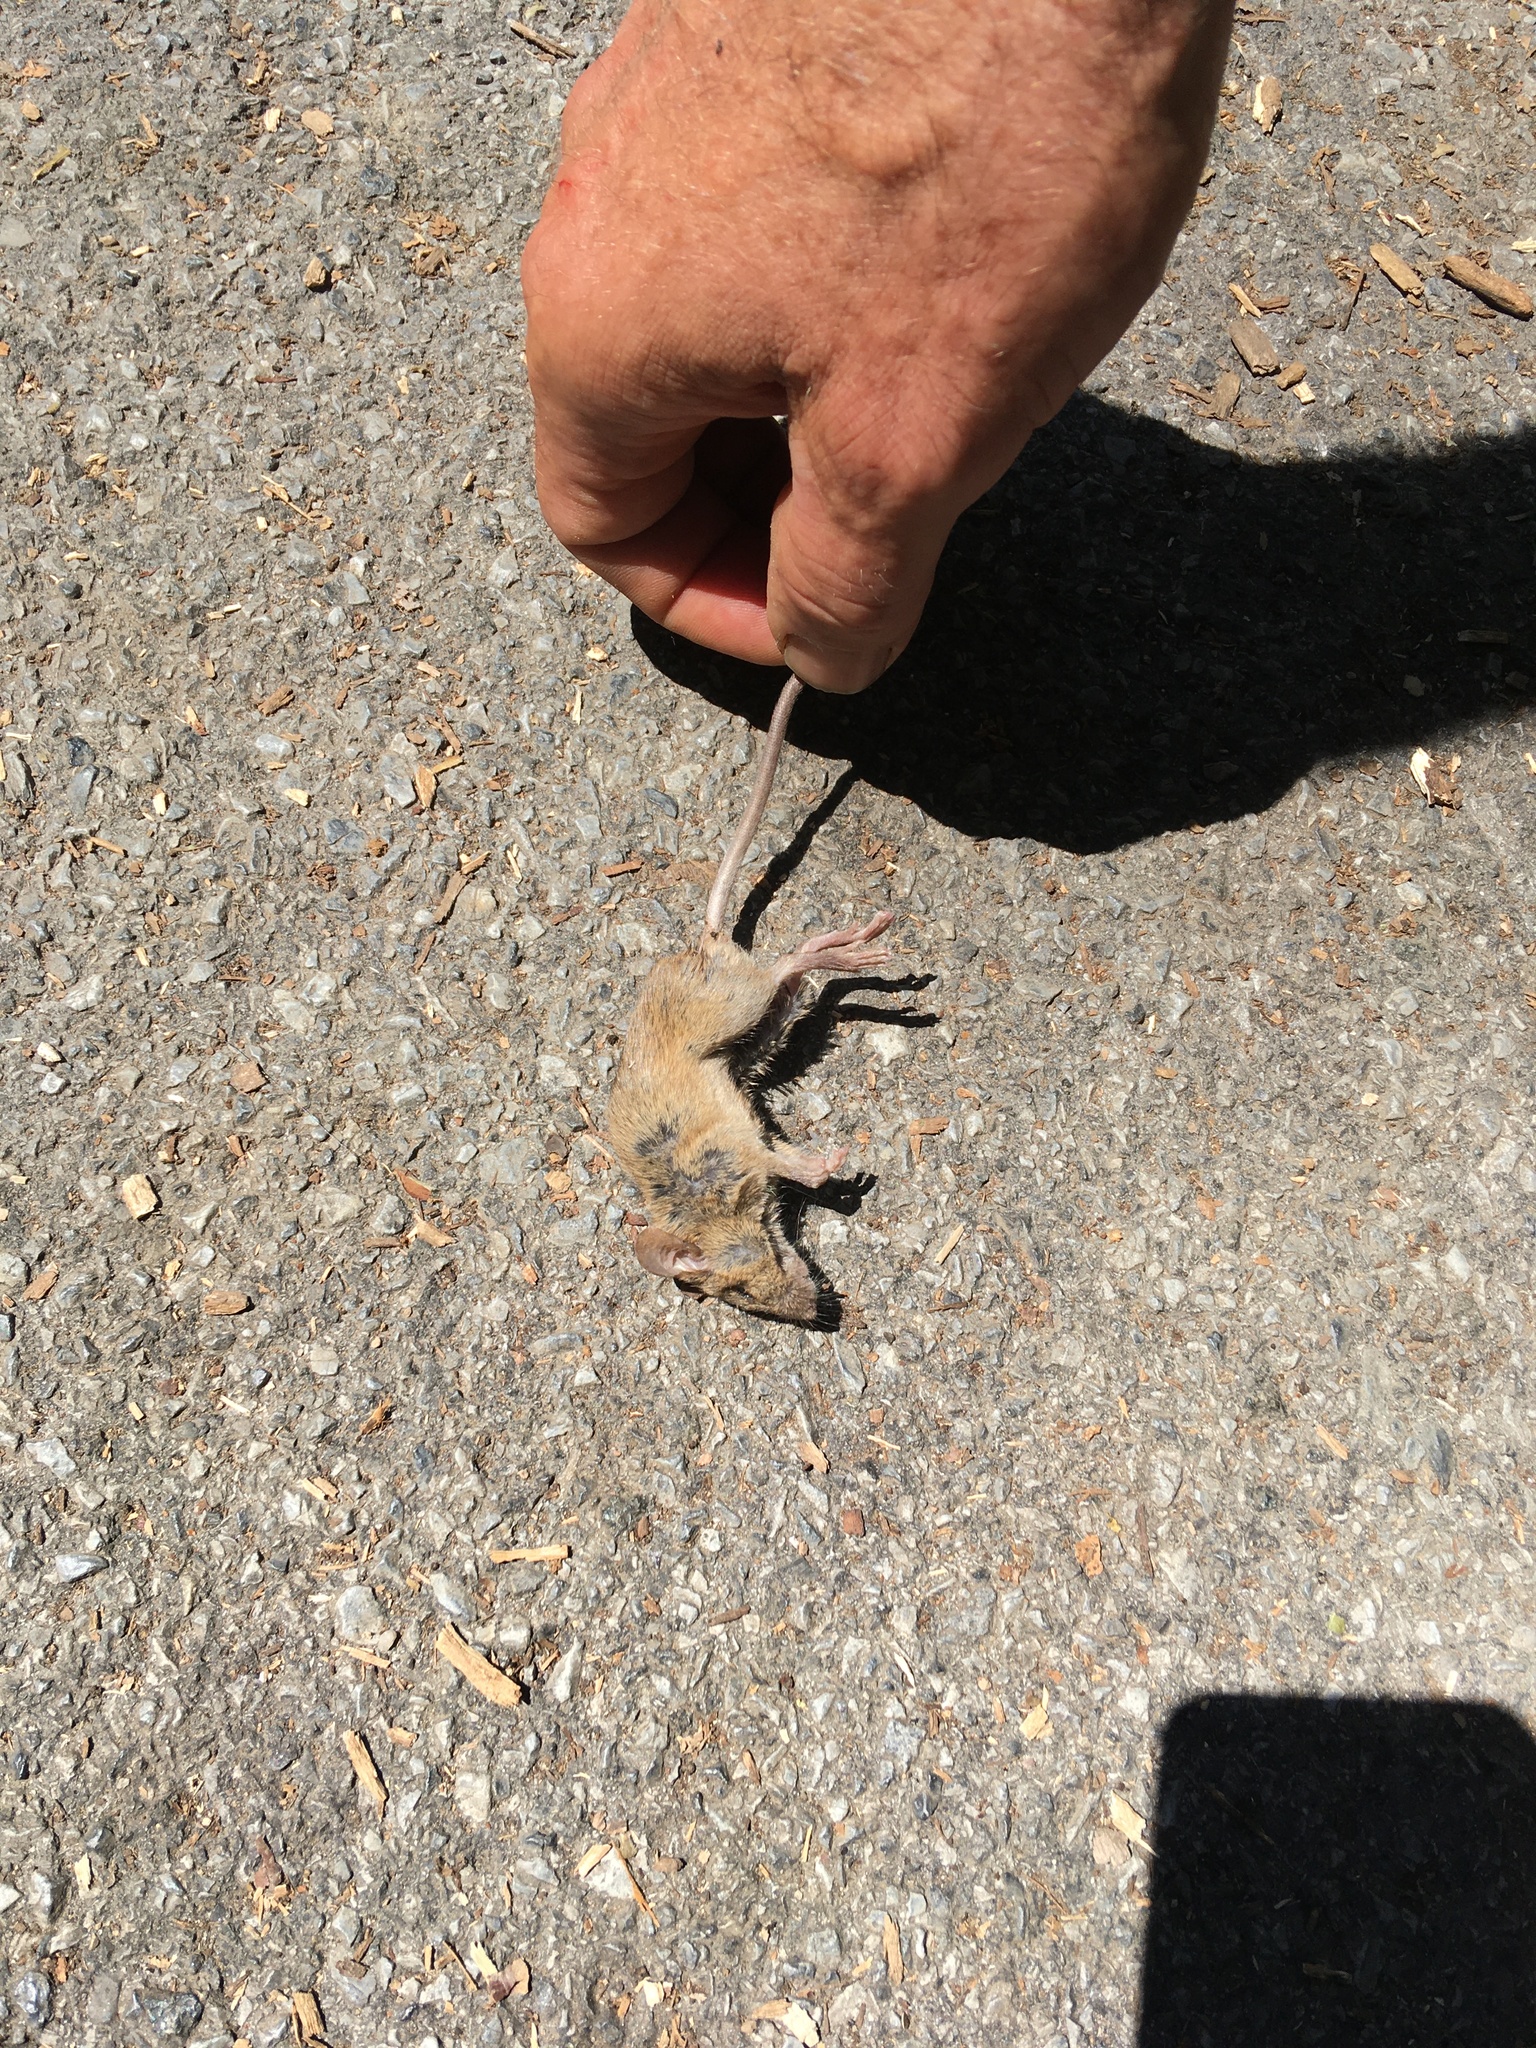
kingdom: Animalia
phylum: Chordata
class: Mammalia
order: Rodentia
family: Muridae
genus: Mus
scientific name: Mus musculus
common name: House mouse
